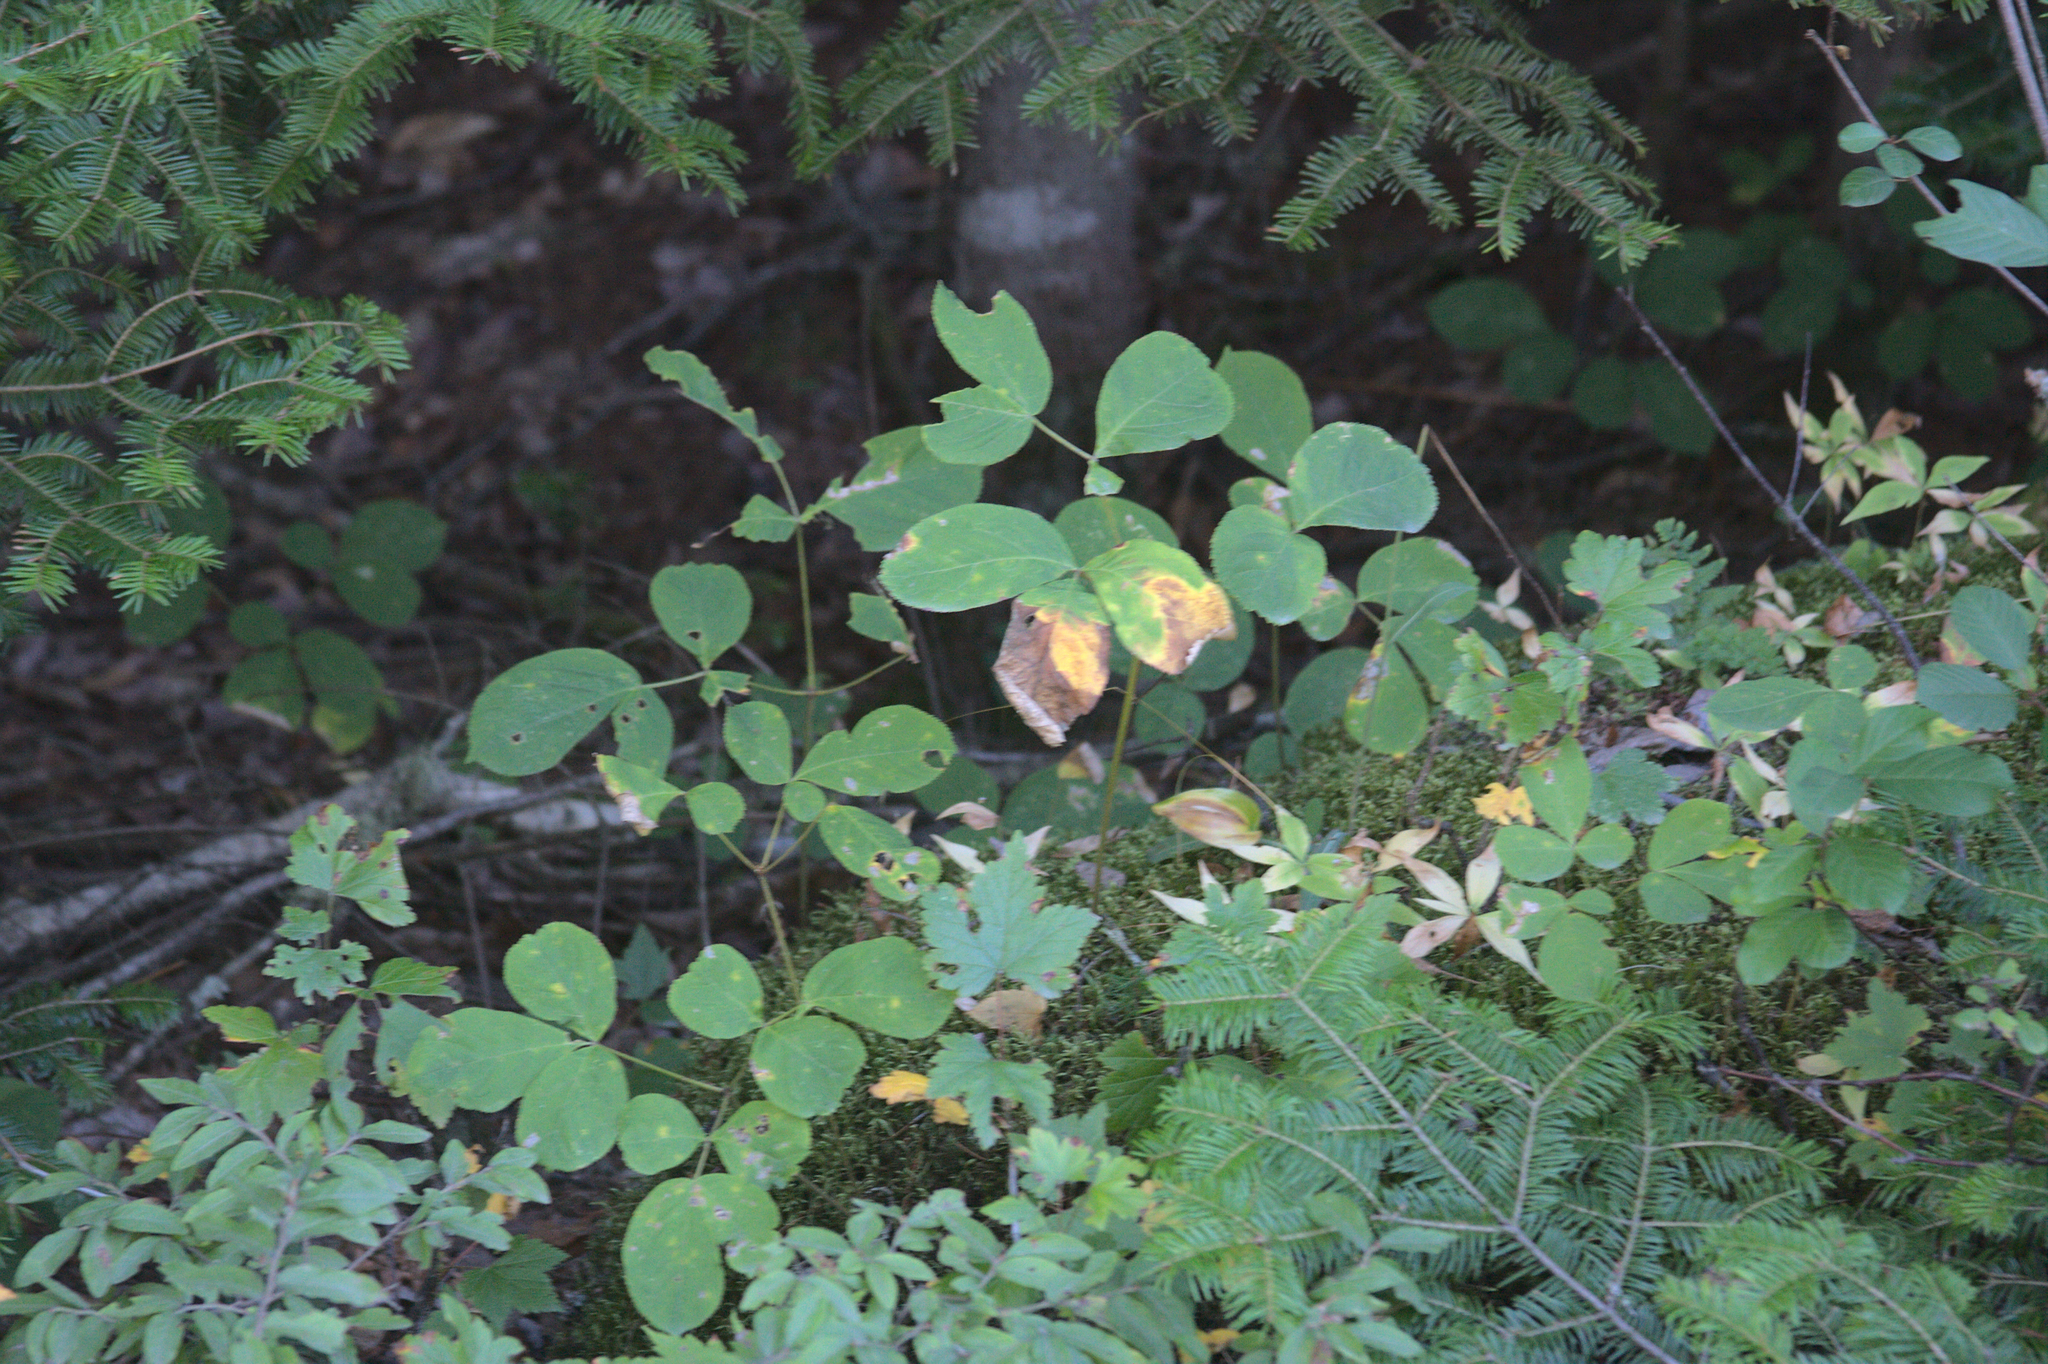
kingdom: Plantae
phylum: Tracheophyta
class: Magnoliopsida
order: Apiales
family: Araliaceae
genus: Aralia
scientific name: Aralia nudicaulis
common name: Wild sarsaparilla
